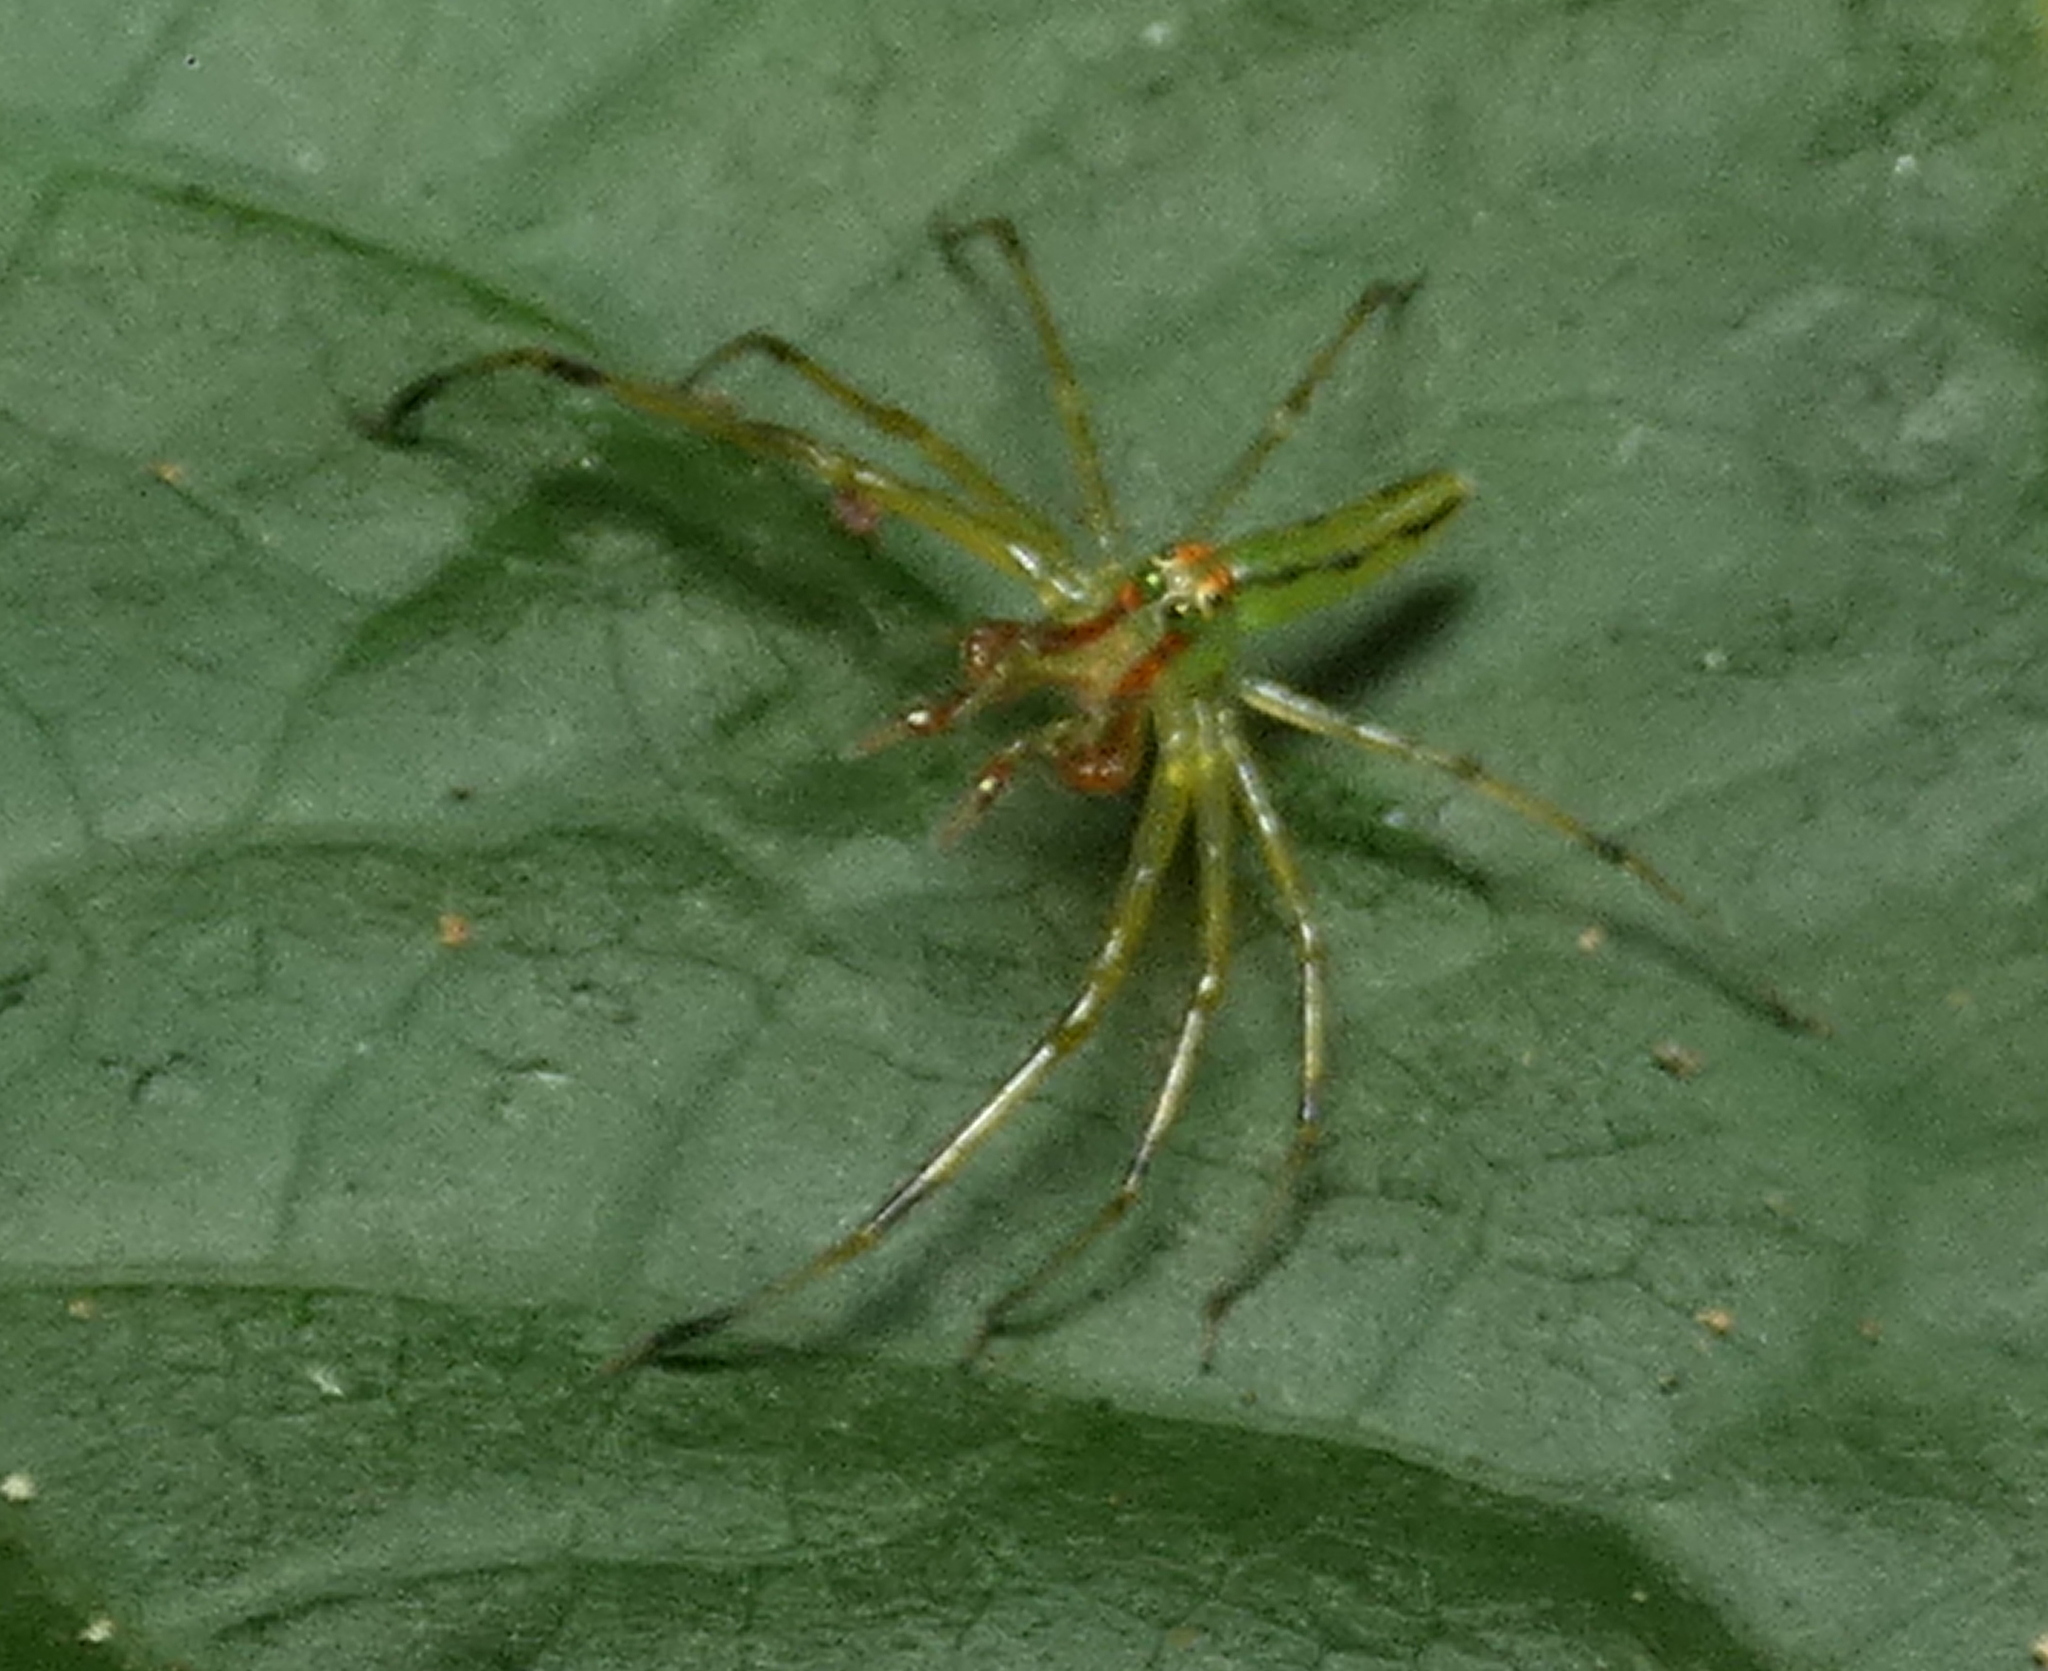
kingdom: Animalia
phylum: Arthropoda
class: Arachnida
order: Araneae
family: Salticidae
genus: Lyssomanes
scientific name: Lyssomanes bitaeniatus
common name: Jumping spiders
